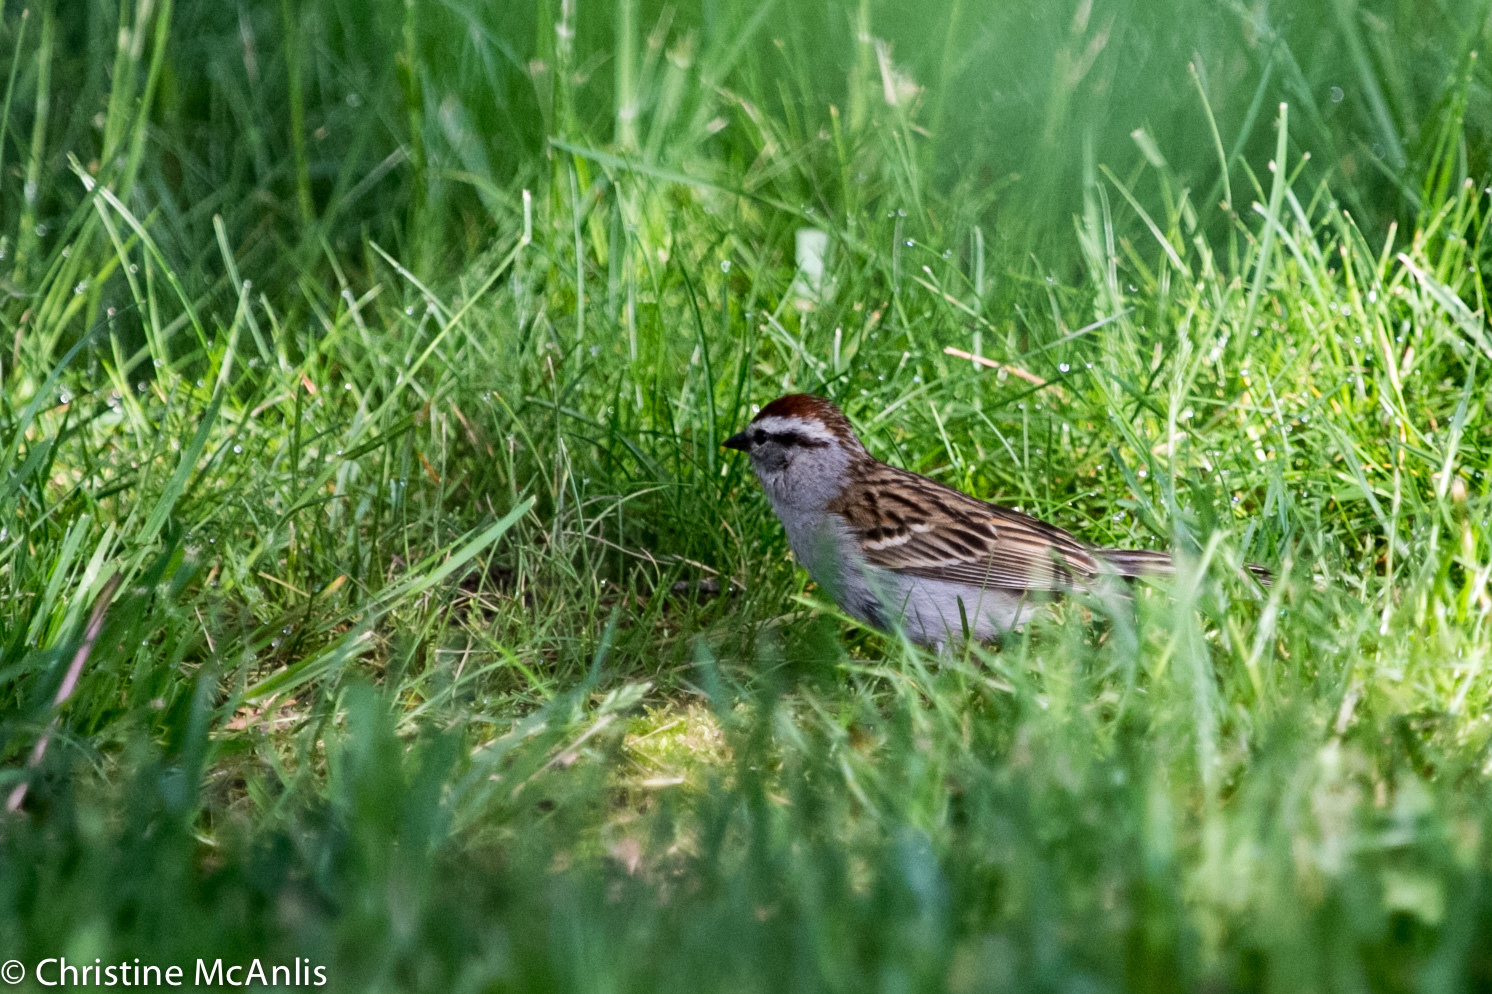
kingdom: Animalia
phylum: Chordata
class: Aves
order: Passeriformes
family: Passerellidae
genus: Spizella
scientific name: Spizella passerina
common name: Chipping sparrow
